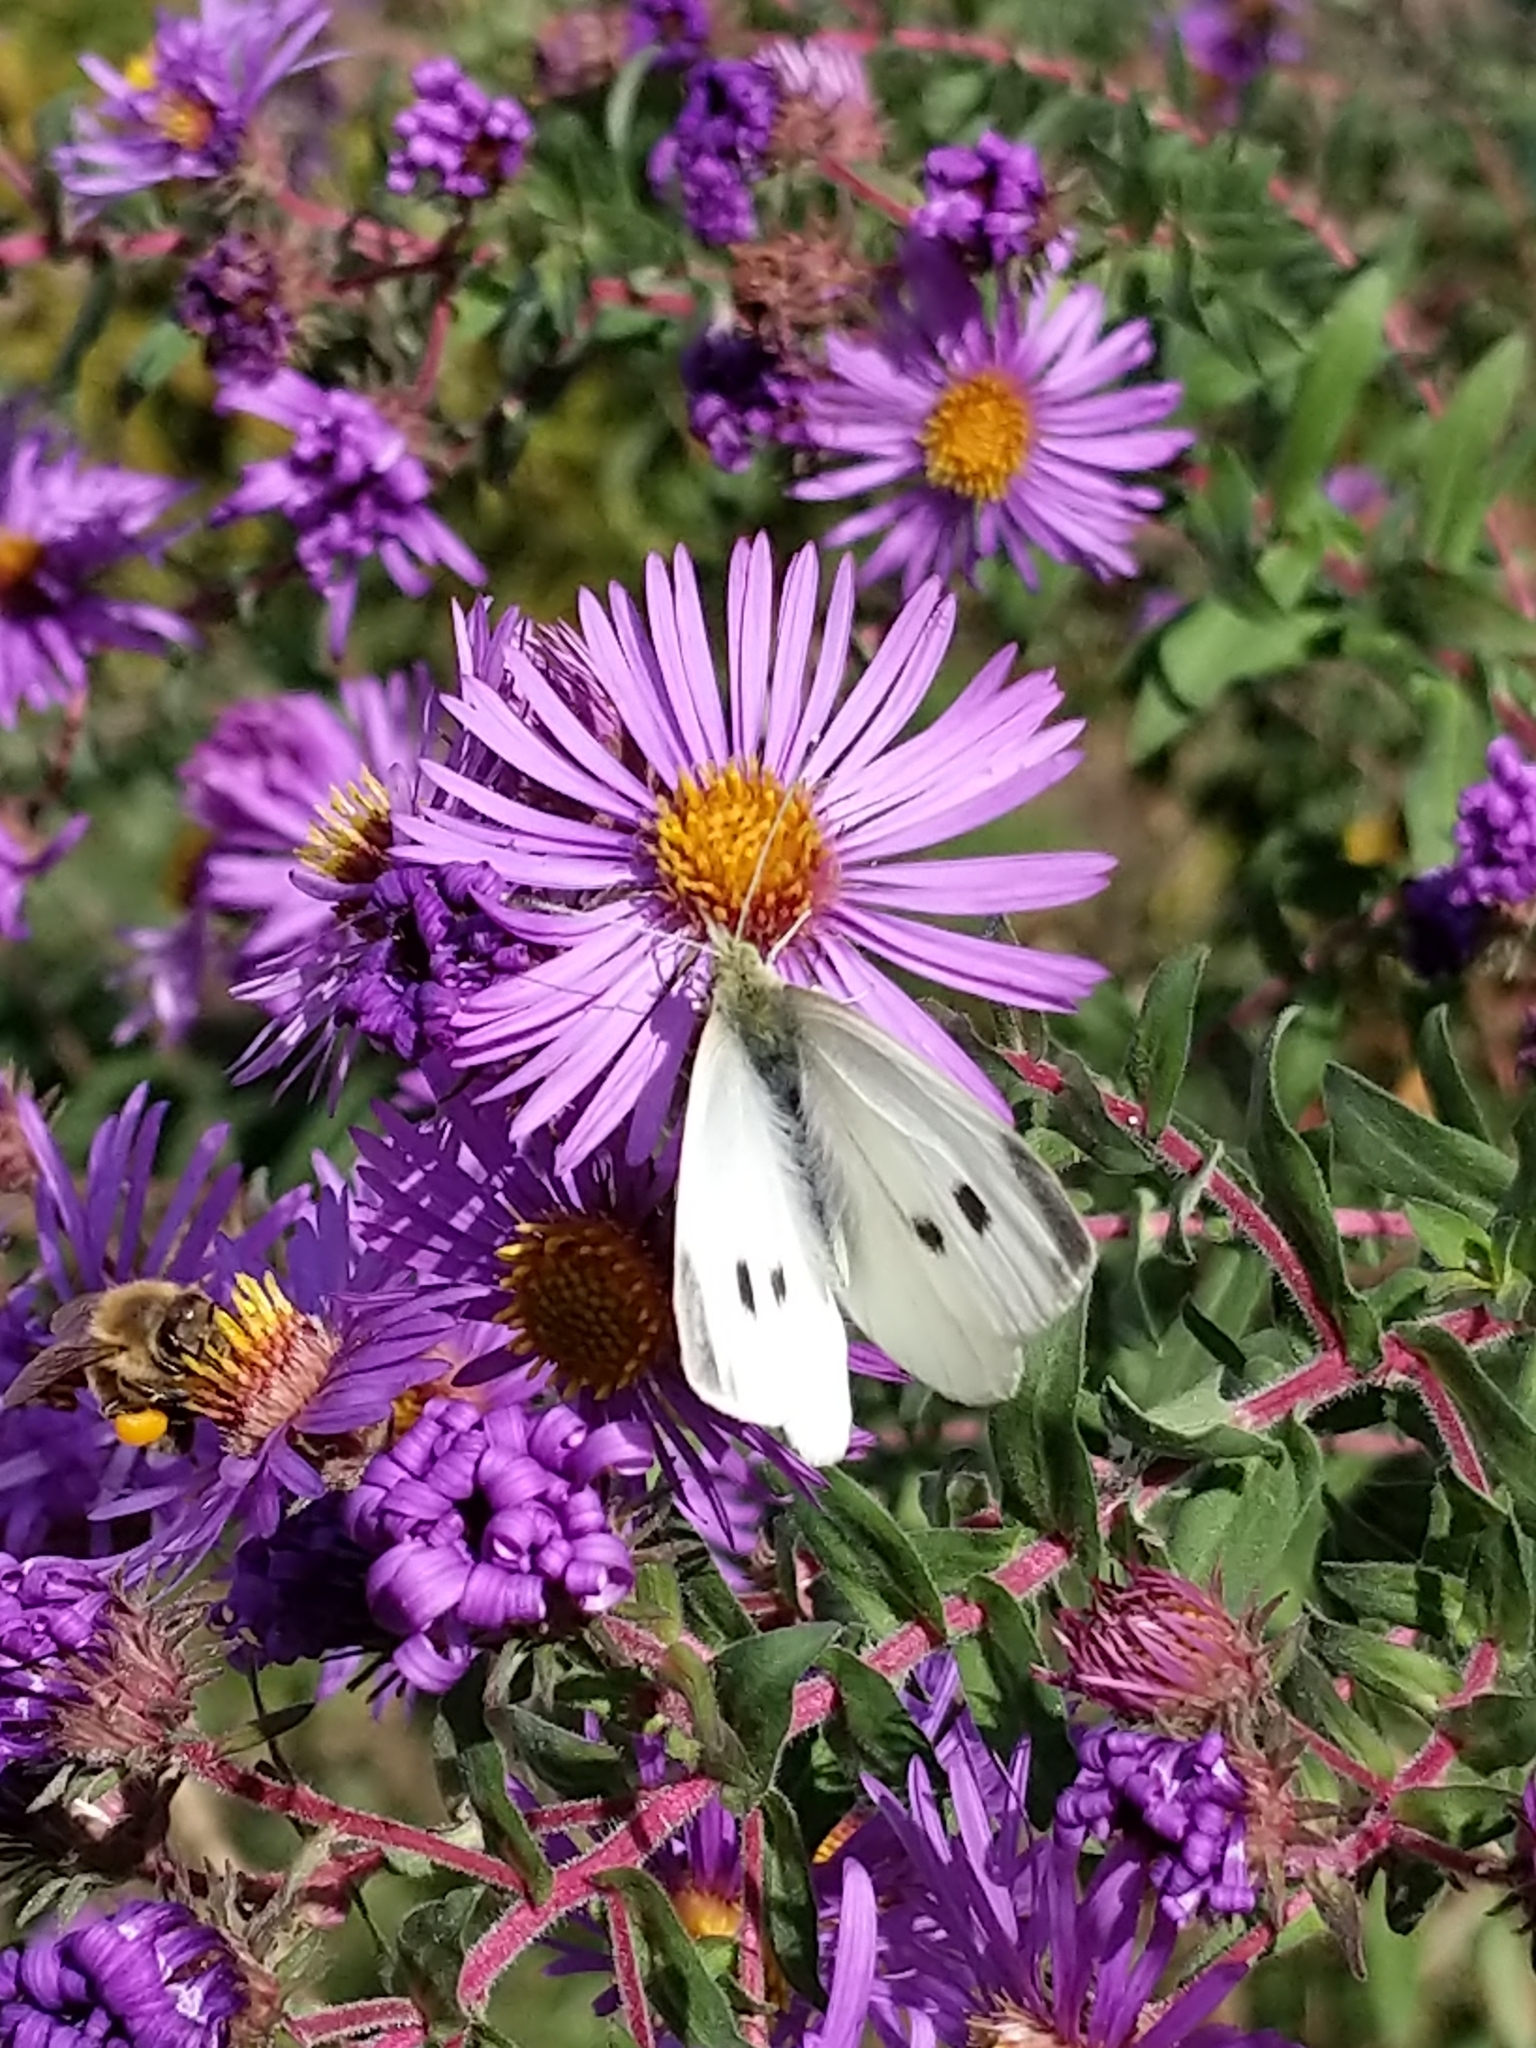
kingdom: Animalia
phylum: Arthropoda
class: Insecta
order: Lepidoptera
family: Pieridae
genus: Pieris
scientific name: Pieris rapae
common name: Small white
